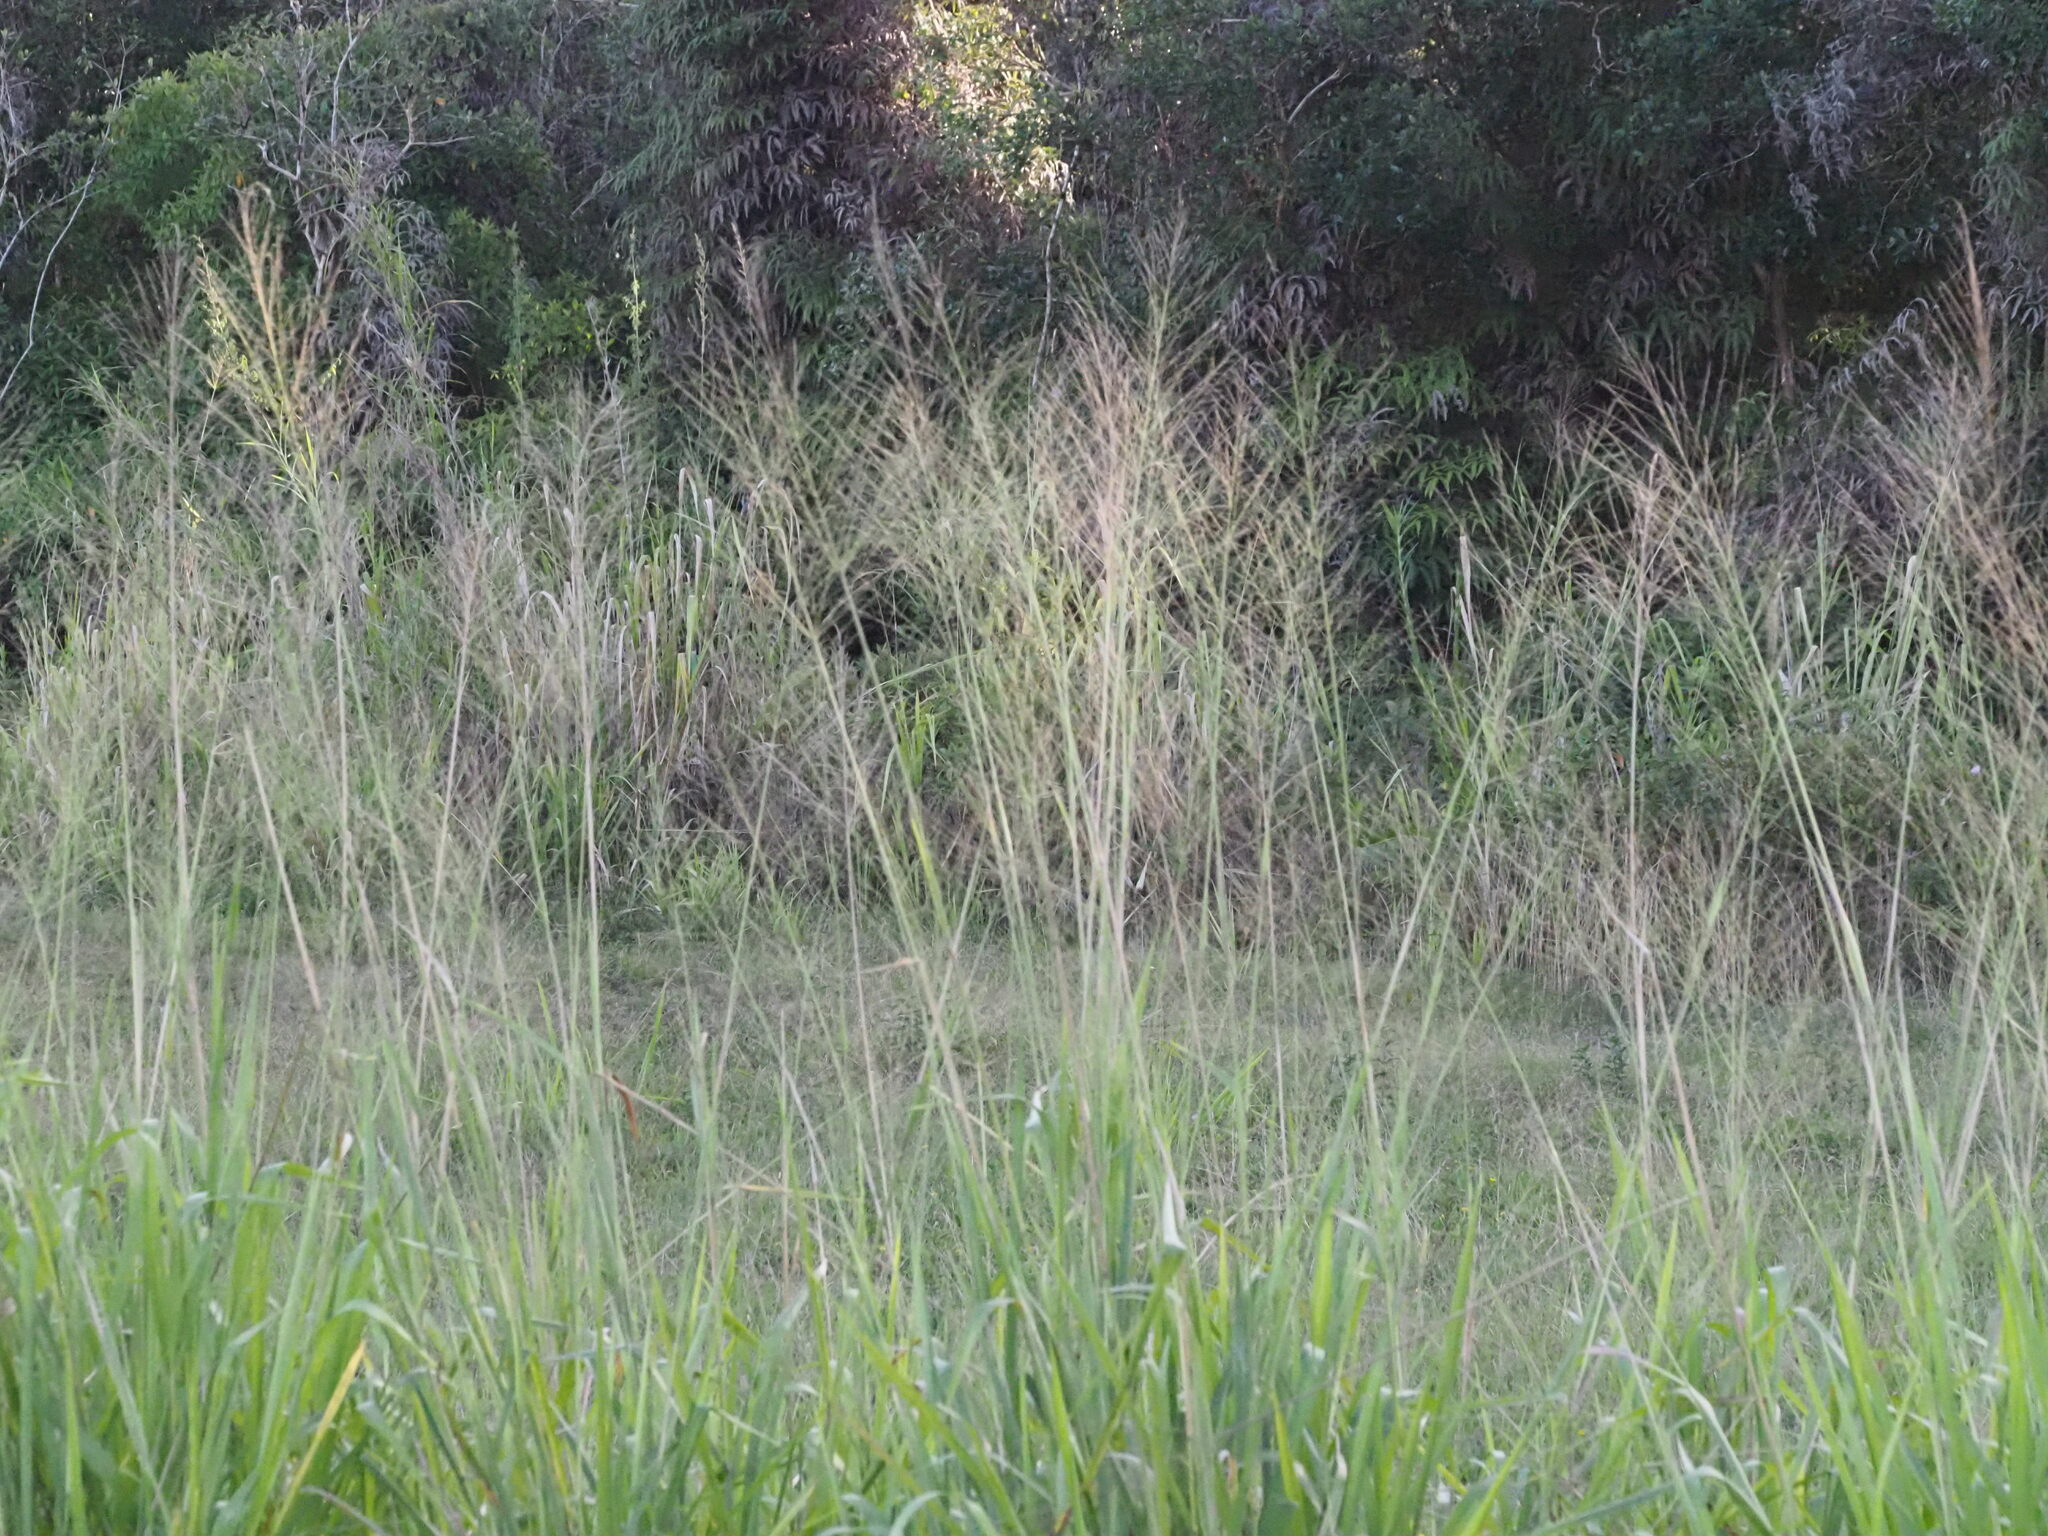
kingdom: Plantae
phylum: Tracheophyta
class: Liliopsida
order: Poales
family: Poaceae
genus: Megathyrsus
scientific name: Megathyrsus maximus
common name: Guineagrass
